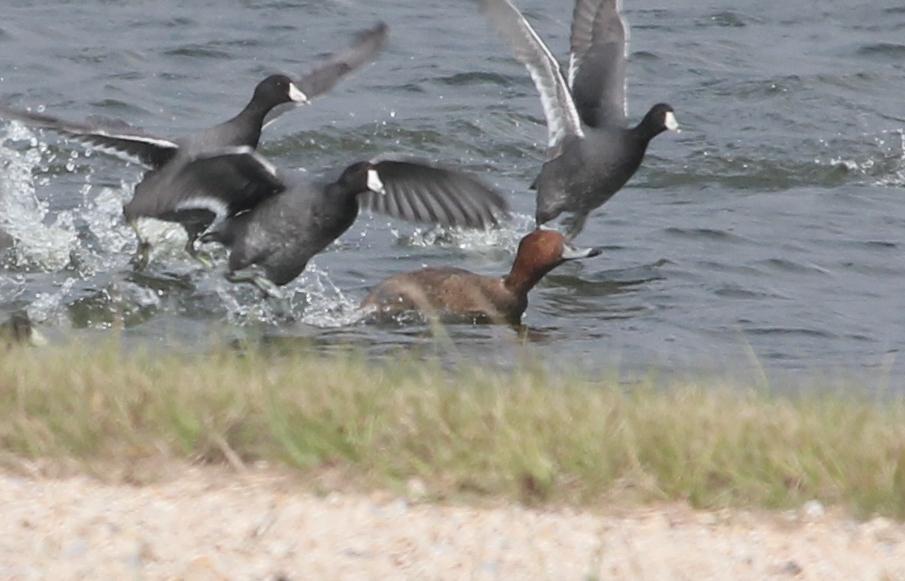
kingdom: Animalia
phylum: Chordata
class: Aves
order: Anseriformes
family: Anatidae
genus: Aythya
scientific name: Aythya americana
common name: Redhead
